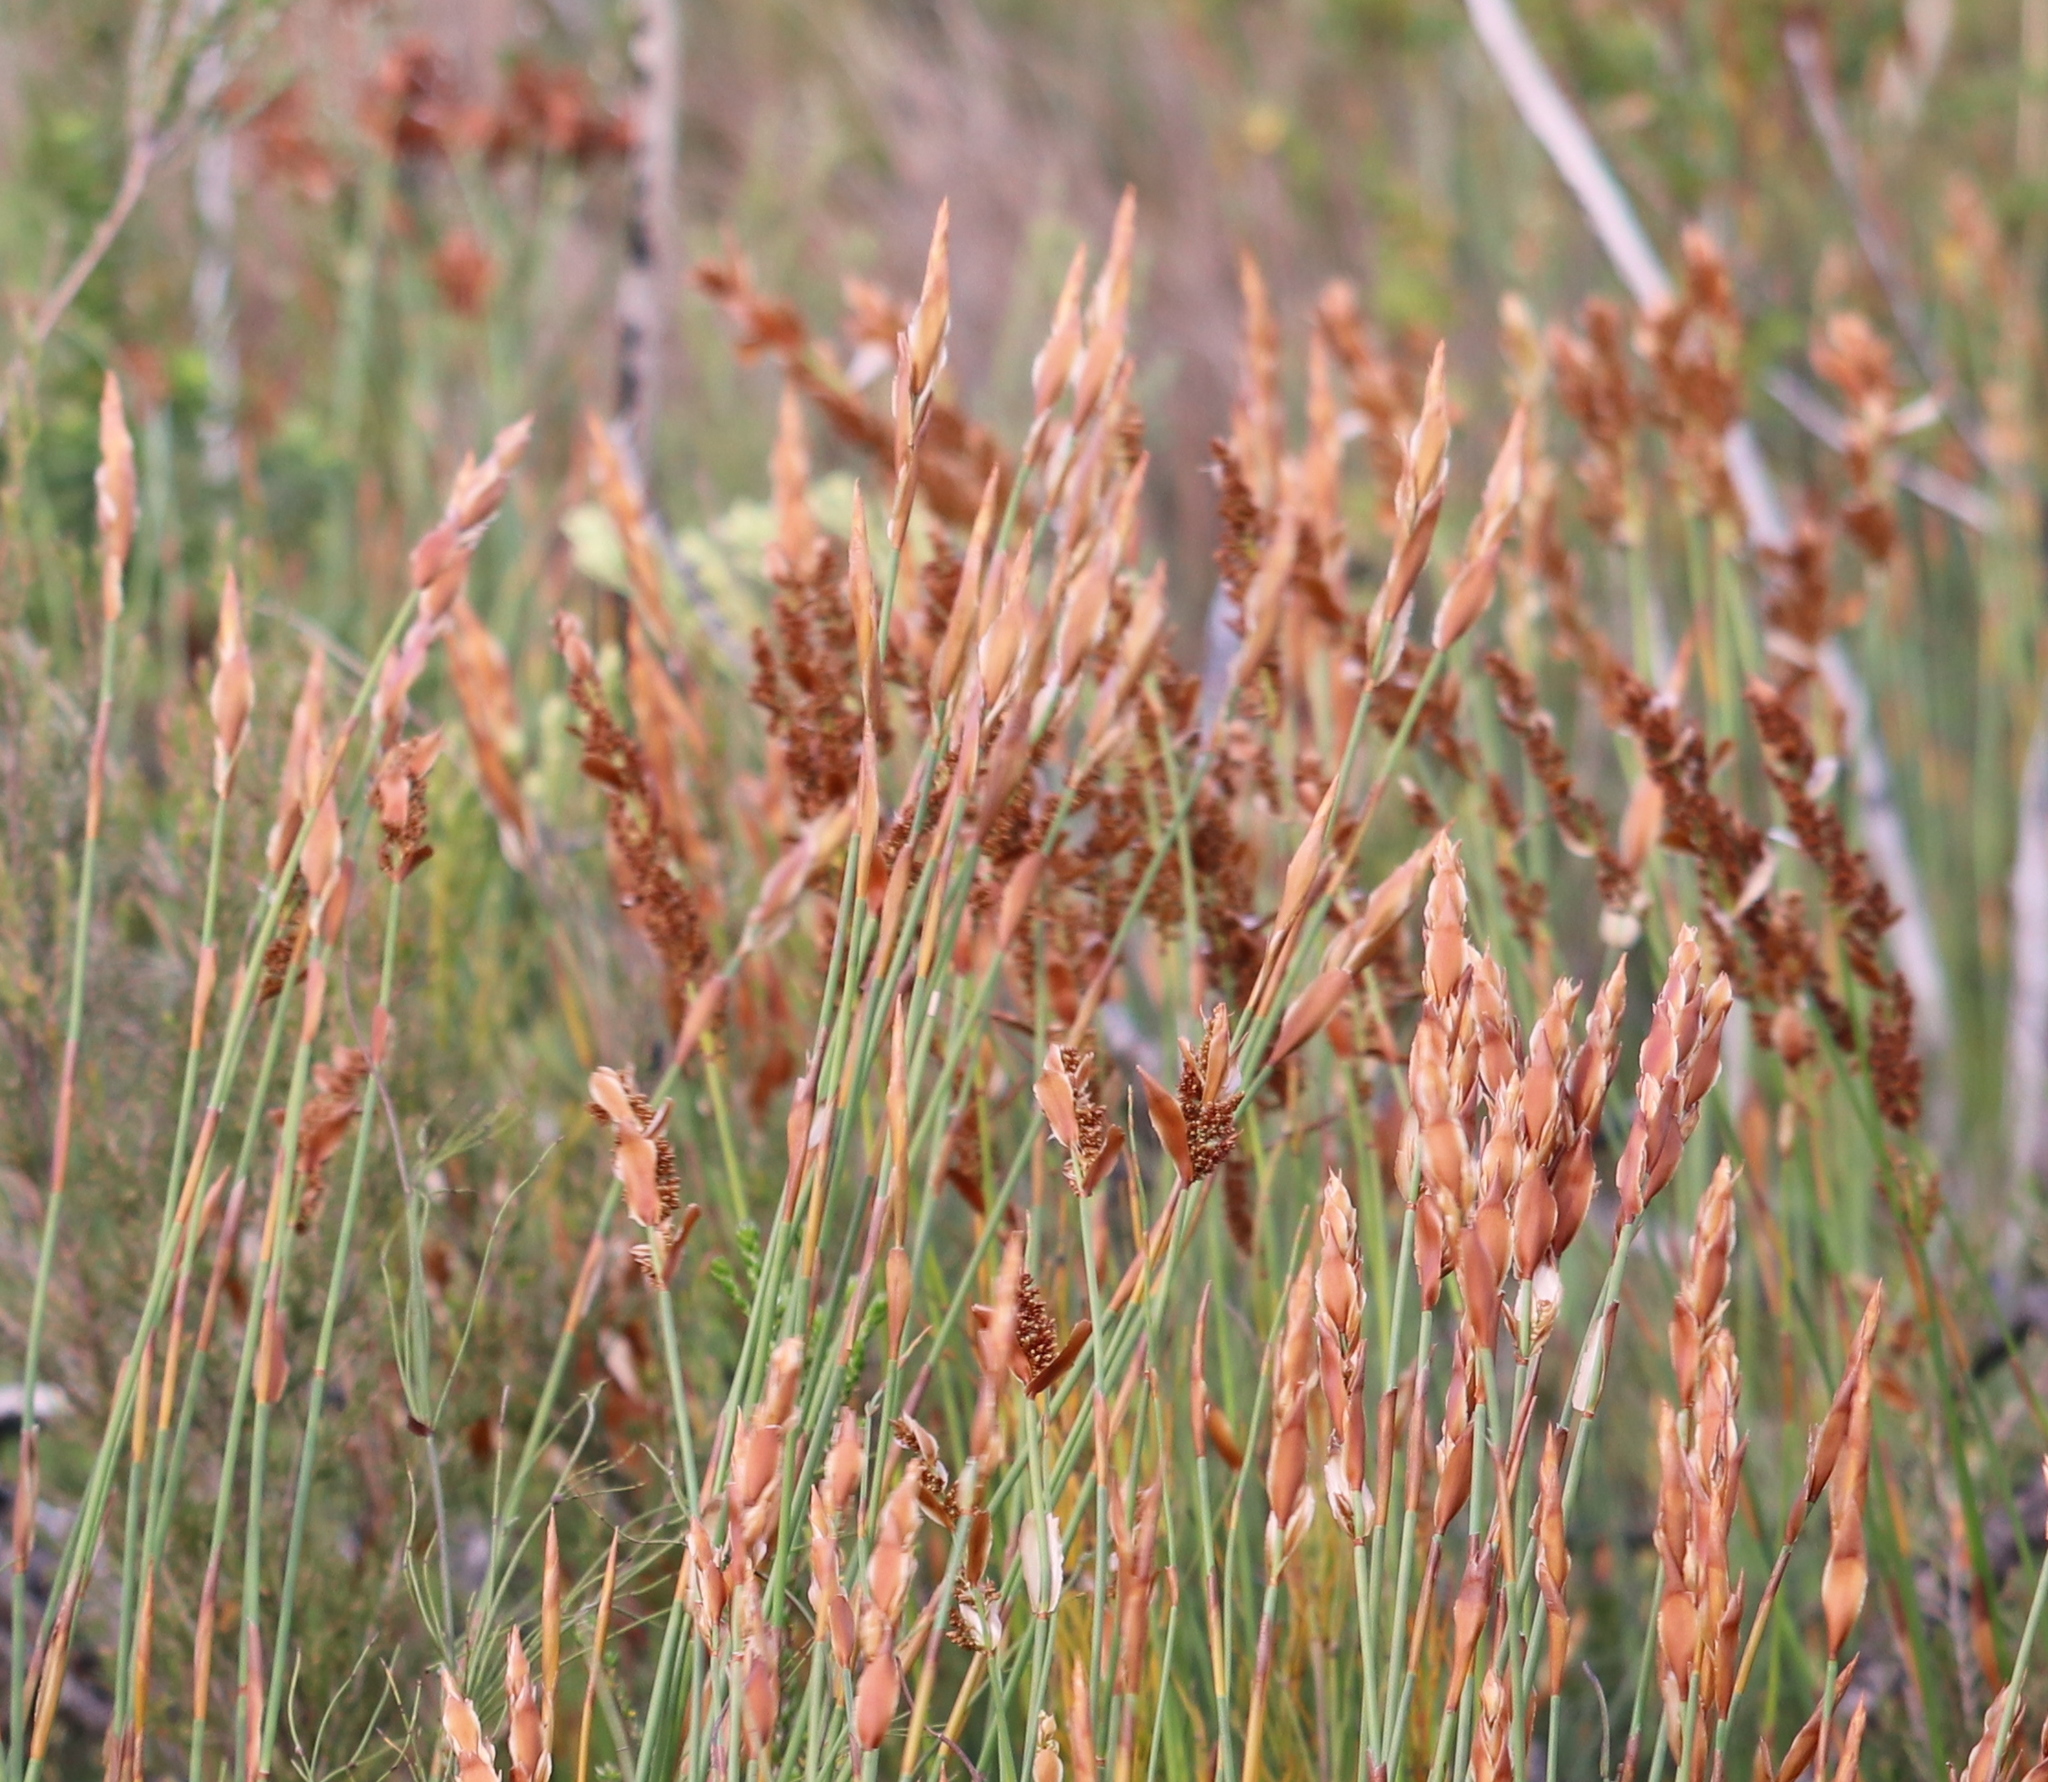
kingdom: Plantae
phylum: Tracheophyta
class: Liliopsida
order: Poales
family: Restionaceae
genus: Elegia
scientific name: Elegia equisetacea
